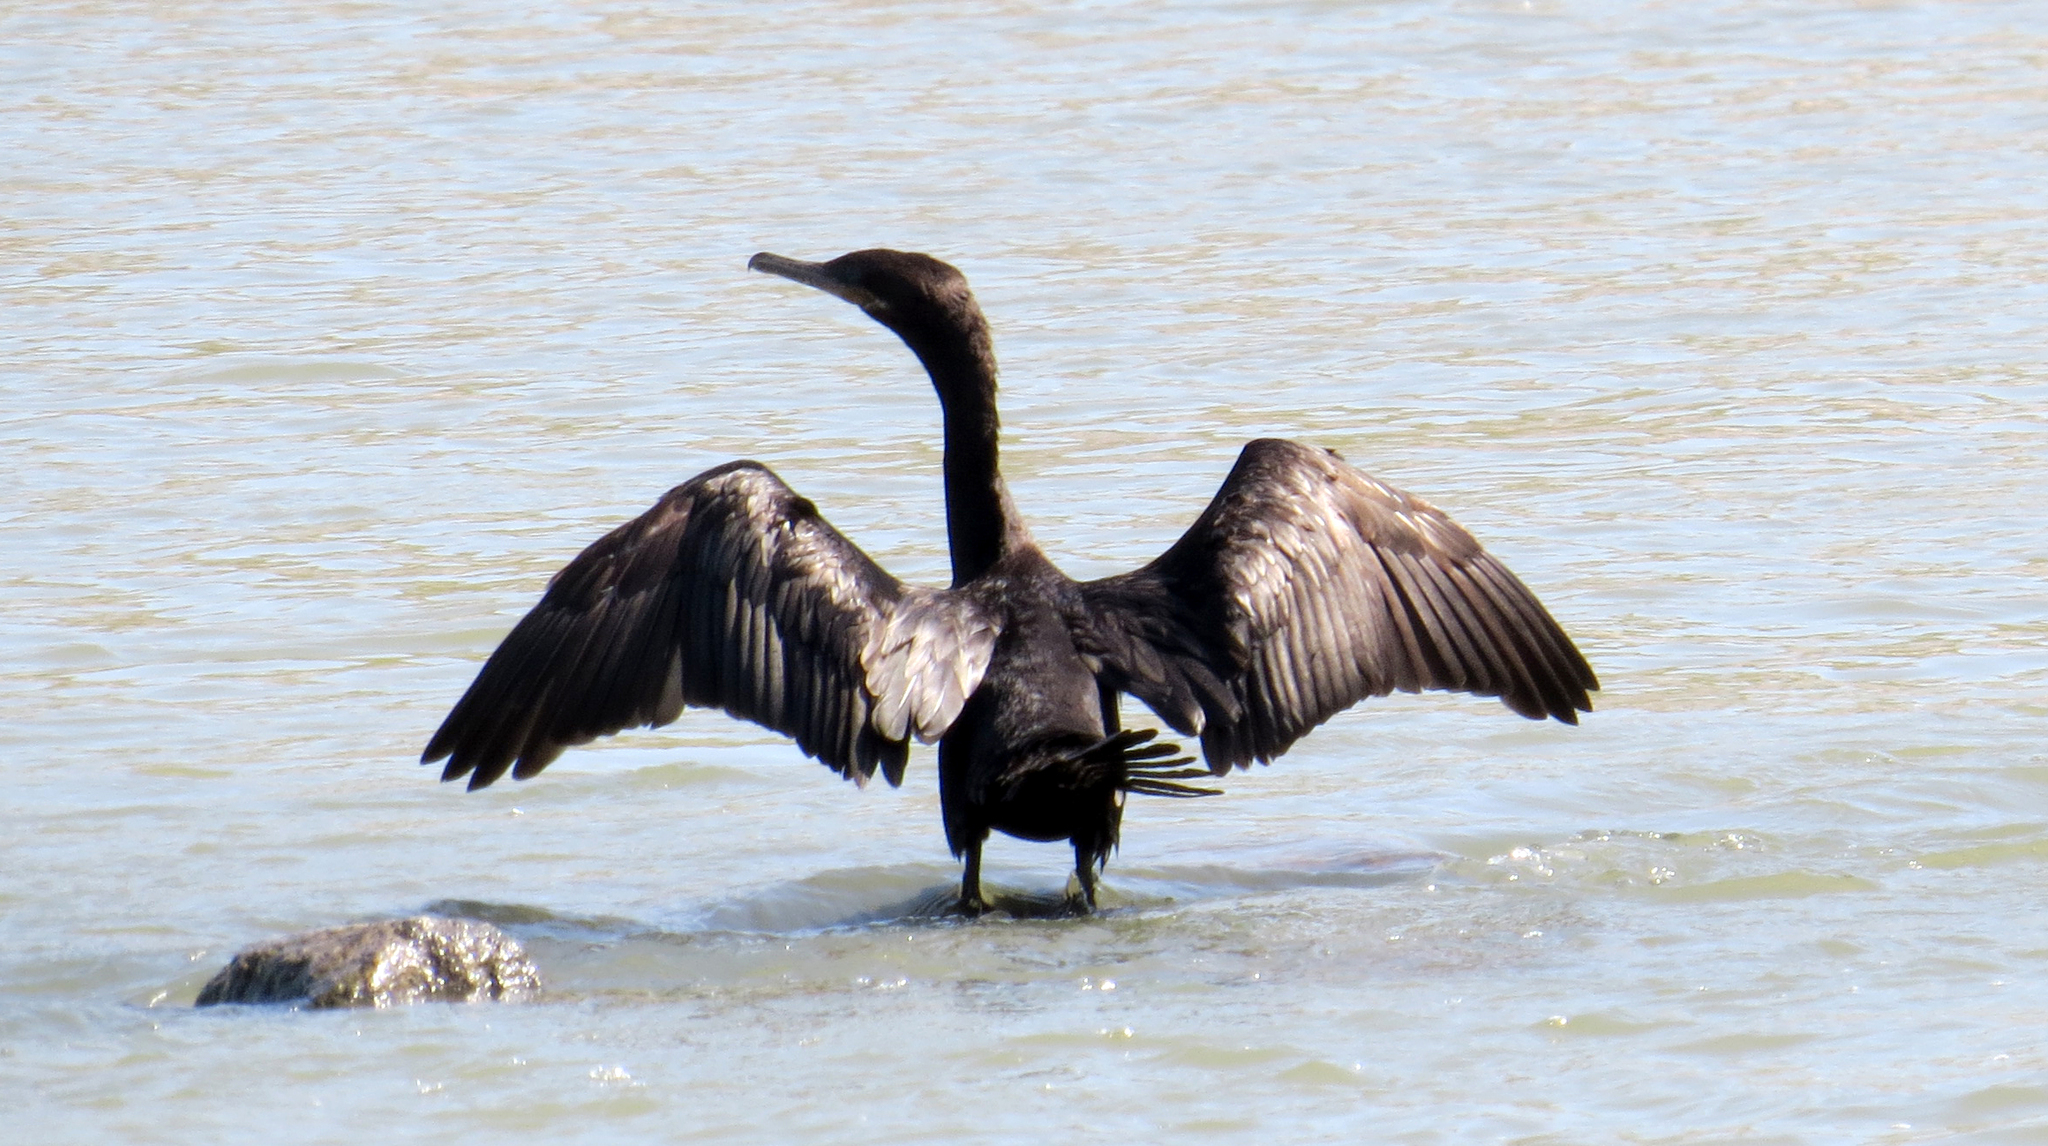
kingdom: Animalia
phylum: Chordata
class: Aves
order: Suliformes
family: Phalacrocoracidae
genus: Phalacrocorax
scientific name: Phalacrocorax brasilianus
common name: Neotropic cormorant
